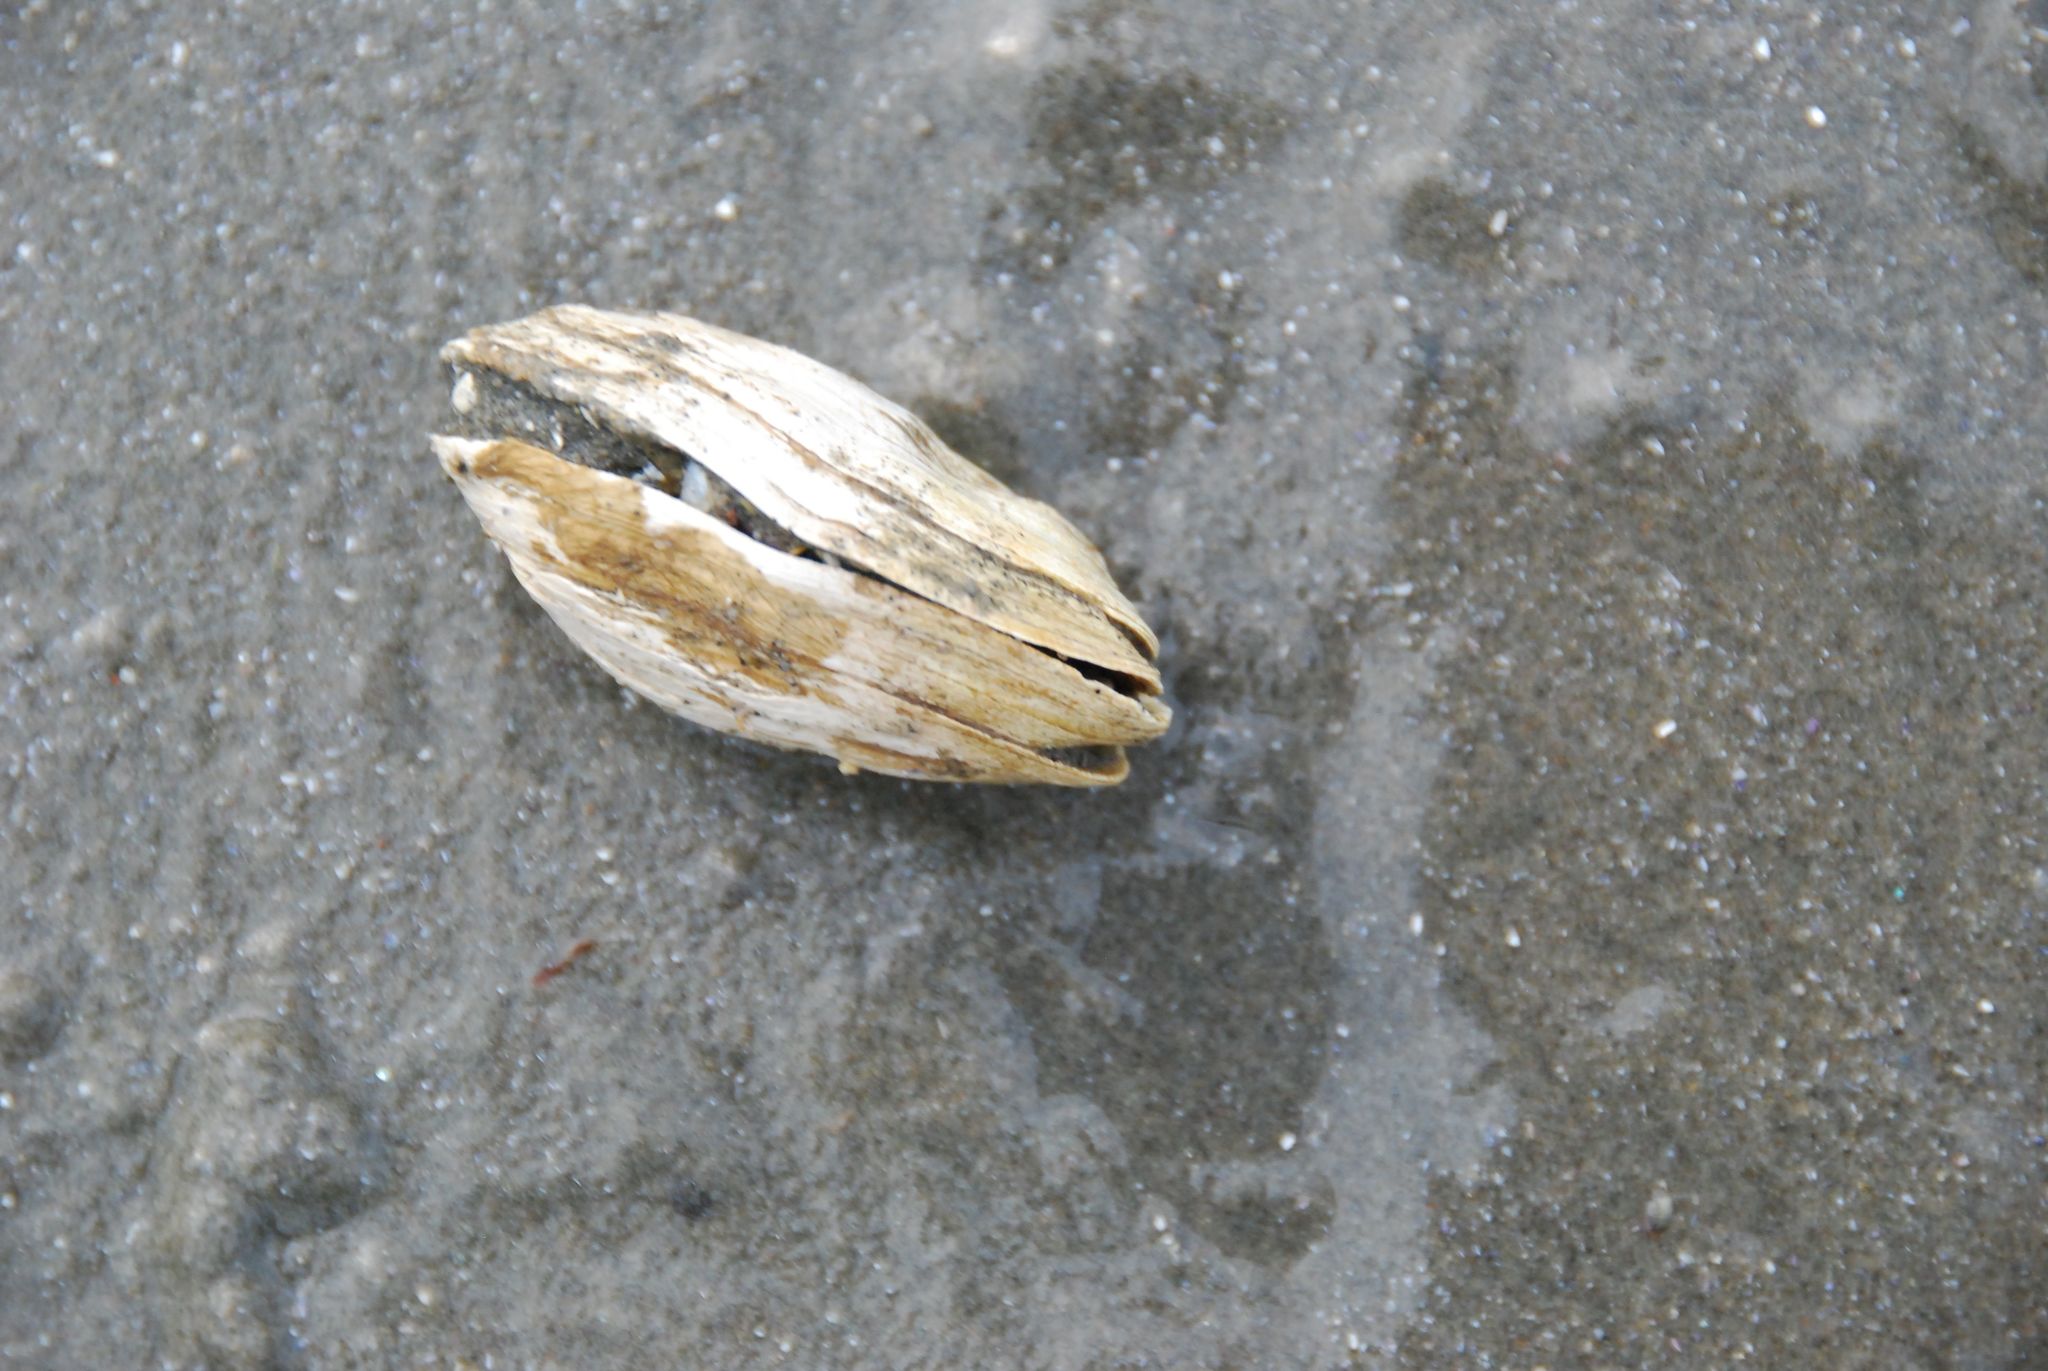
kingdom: Animalia
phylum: Mollusca
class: Bivalvia
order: Myida
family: Myidae
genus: Mya
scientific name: Mya arenaria
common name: Soft-shelled clam
